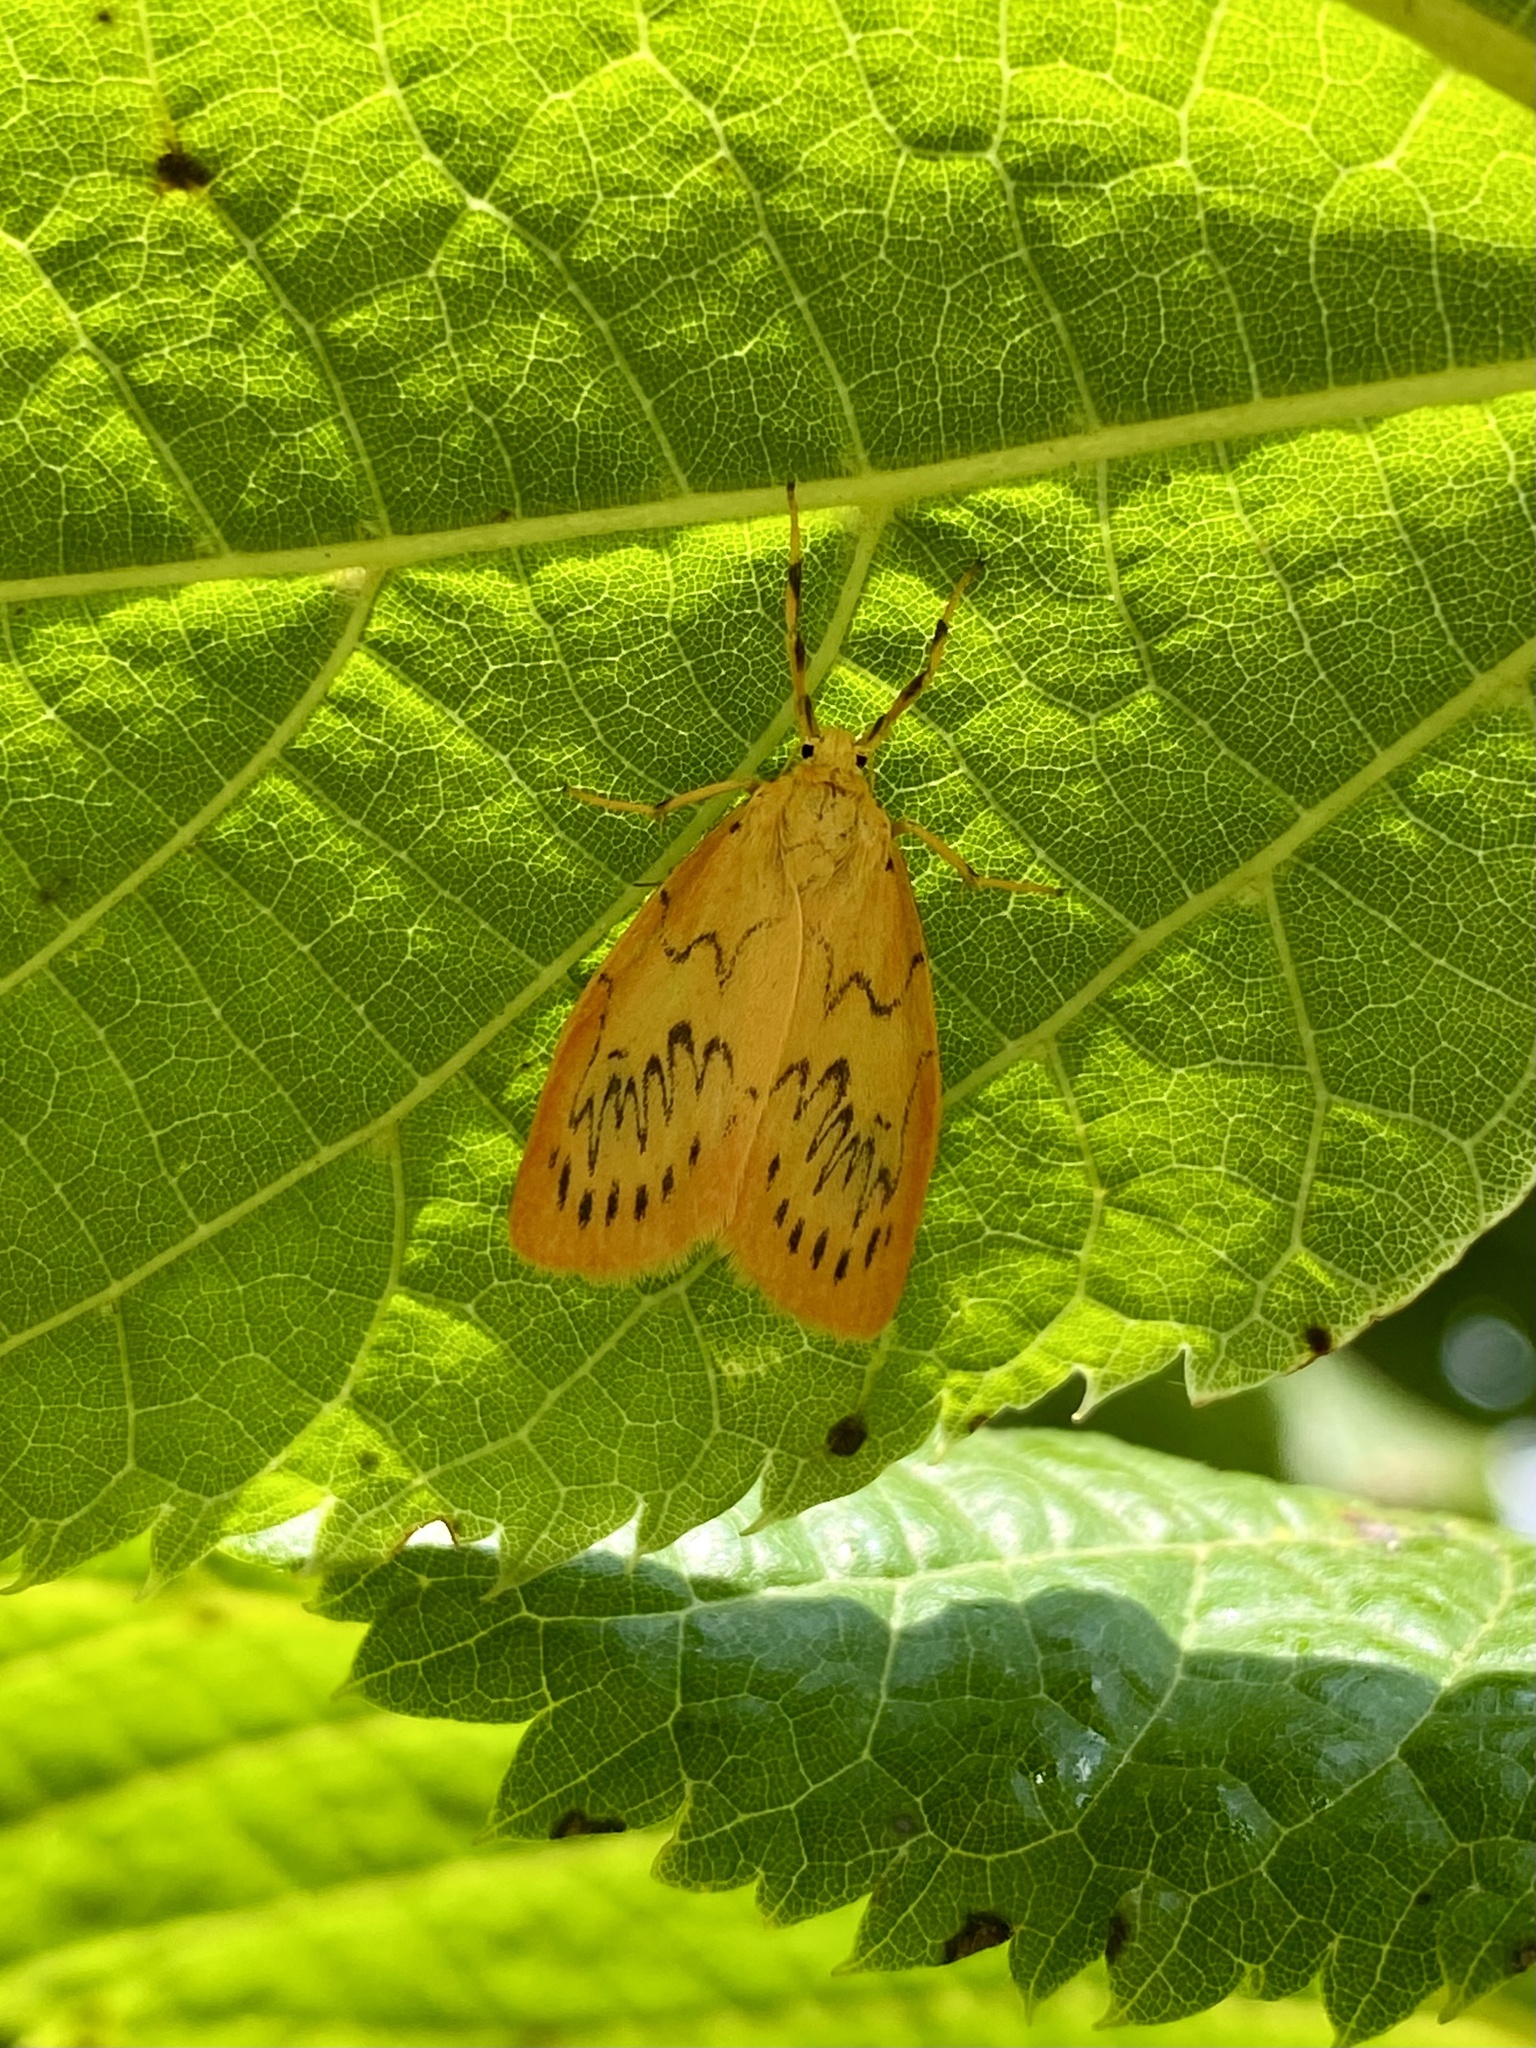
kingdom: Animalia
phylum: Arthropoda
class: Insecta
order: Lepidoptera
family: Erebidae
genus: Miltochrista
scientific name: Miltochrista miniata
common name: Rosy footman
